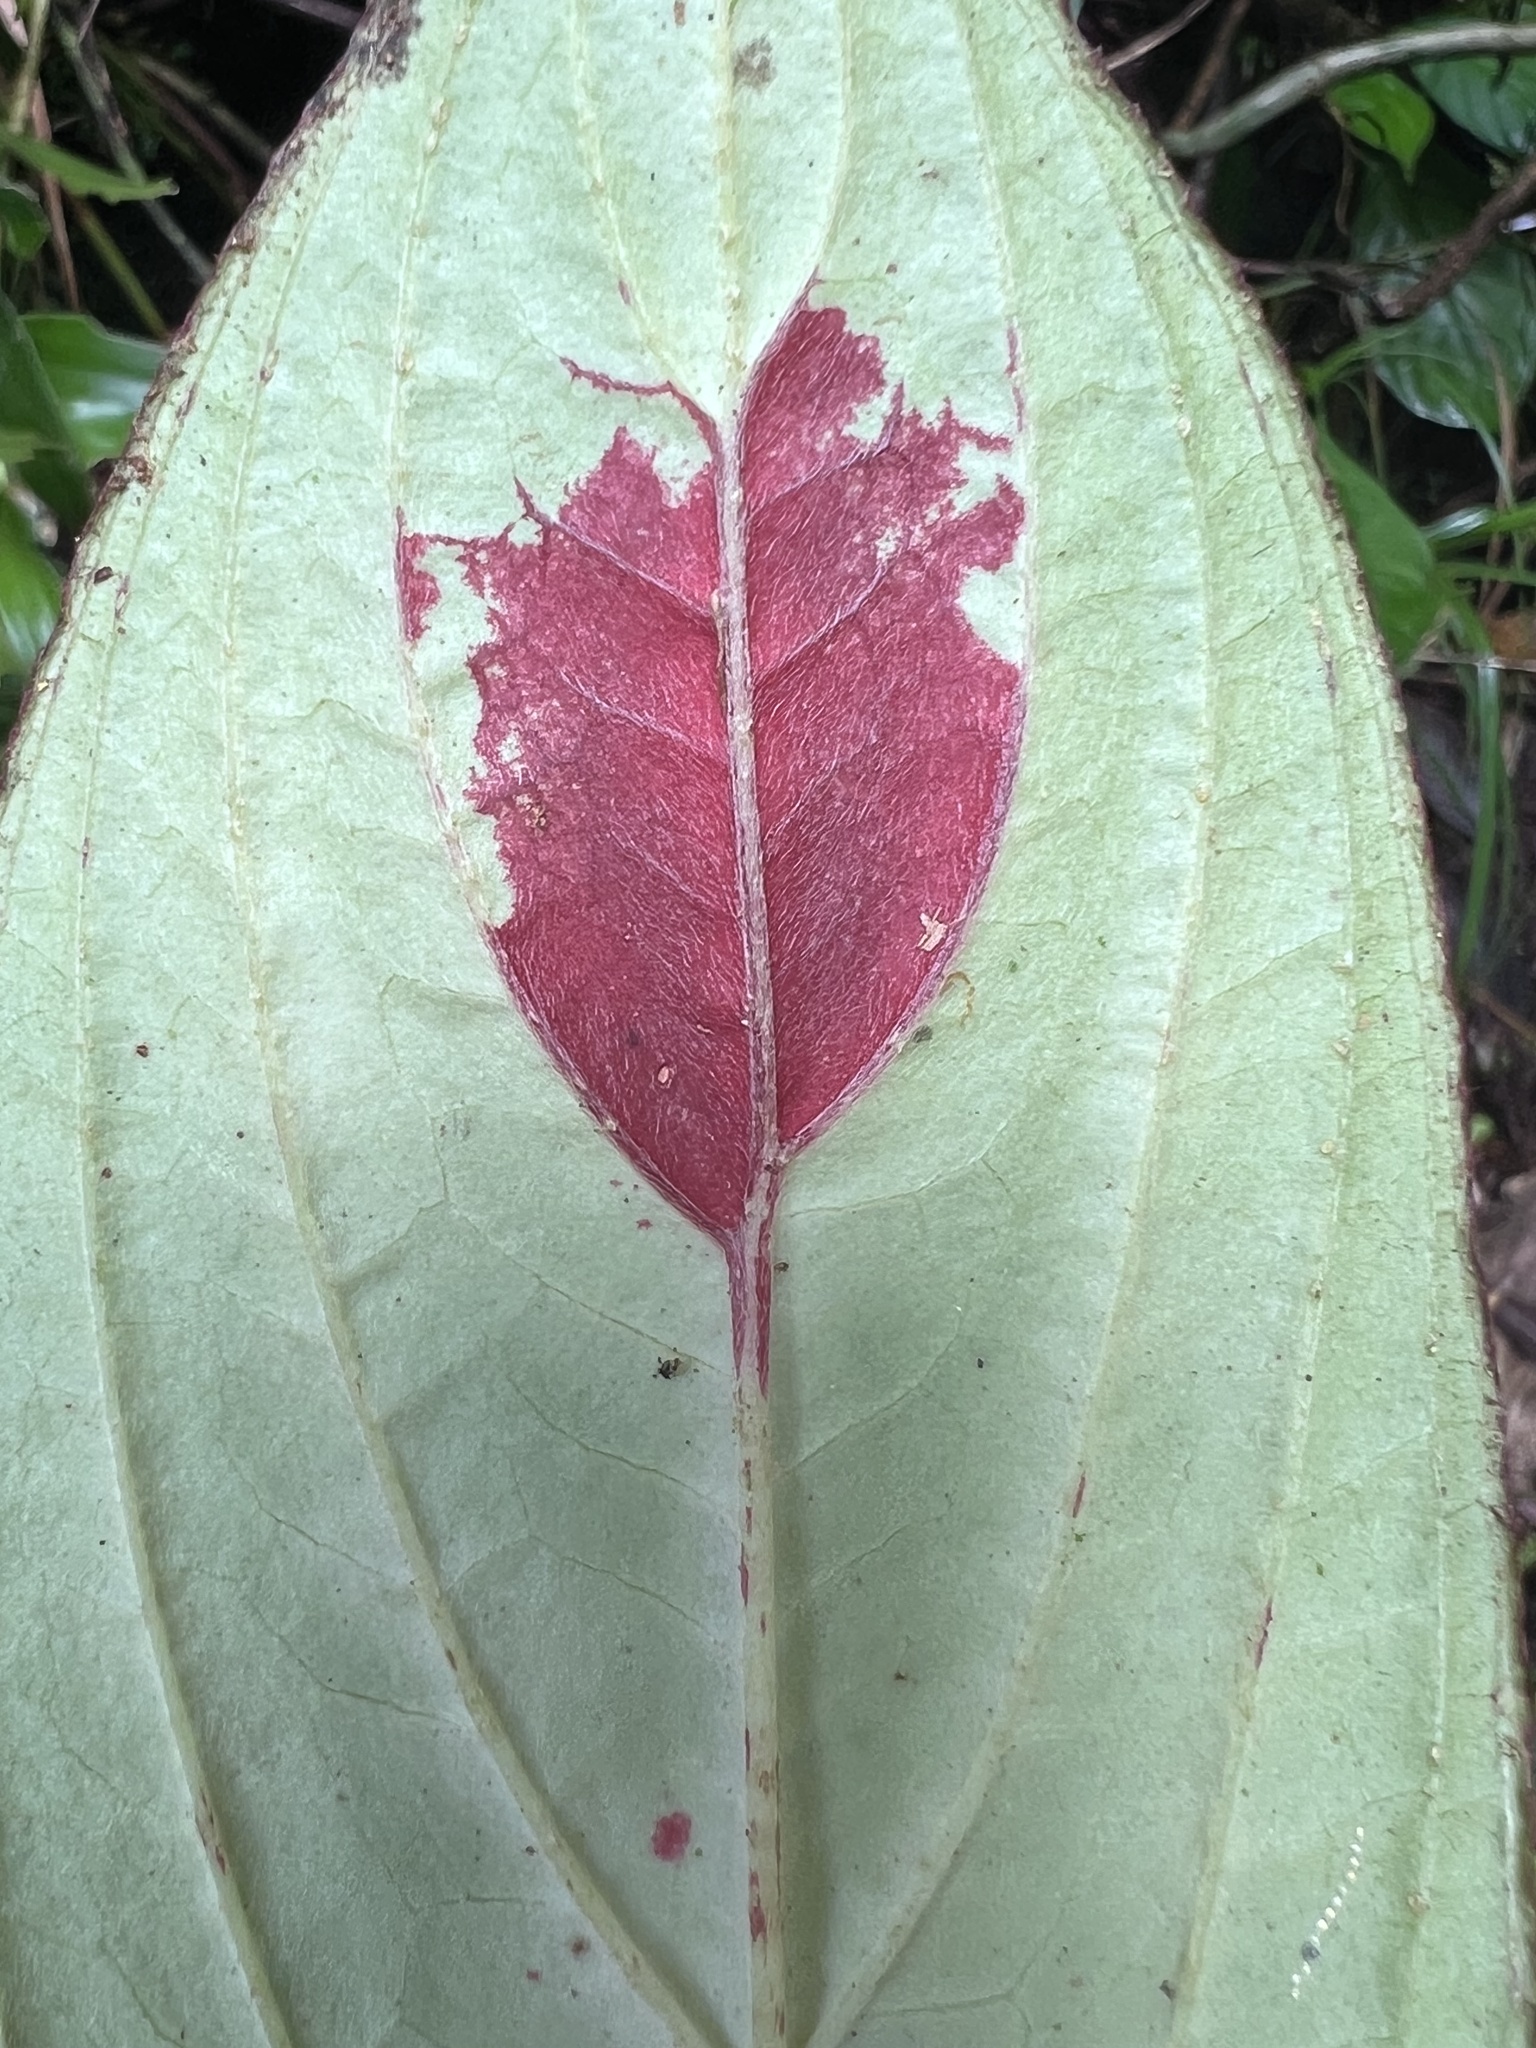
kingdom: Plantae
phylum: Tracheophyta
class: Magnoliopsida
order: Lamiales
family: Gesneriaceae
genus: Columnea
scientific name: Columnea consanguinea
